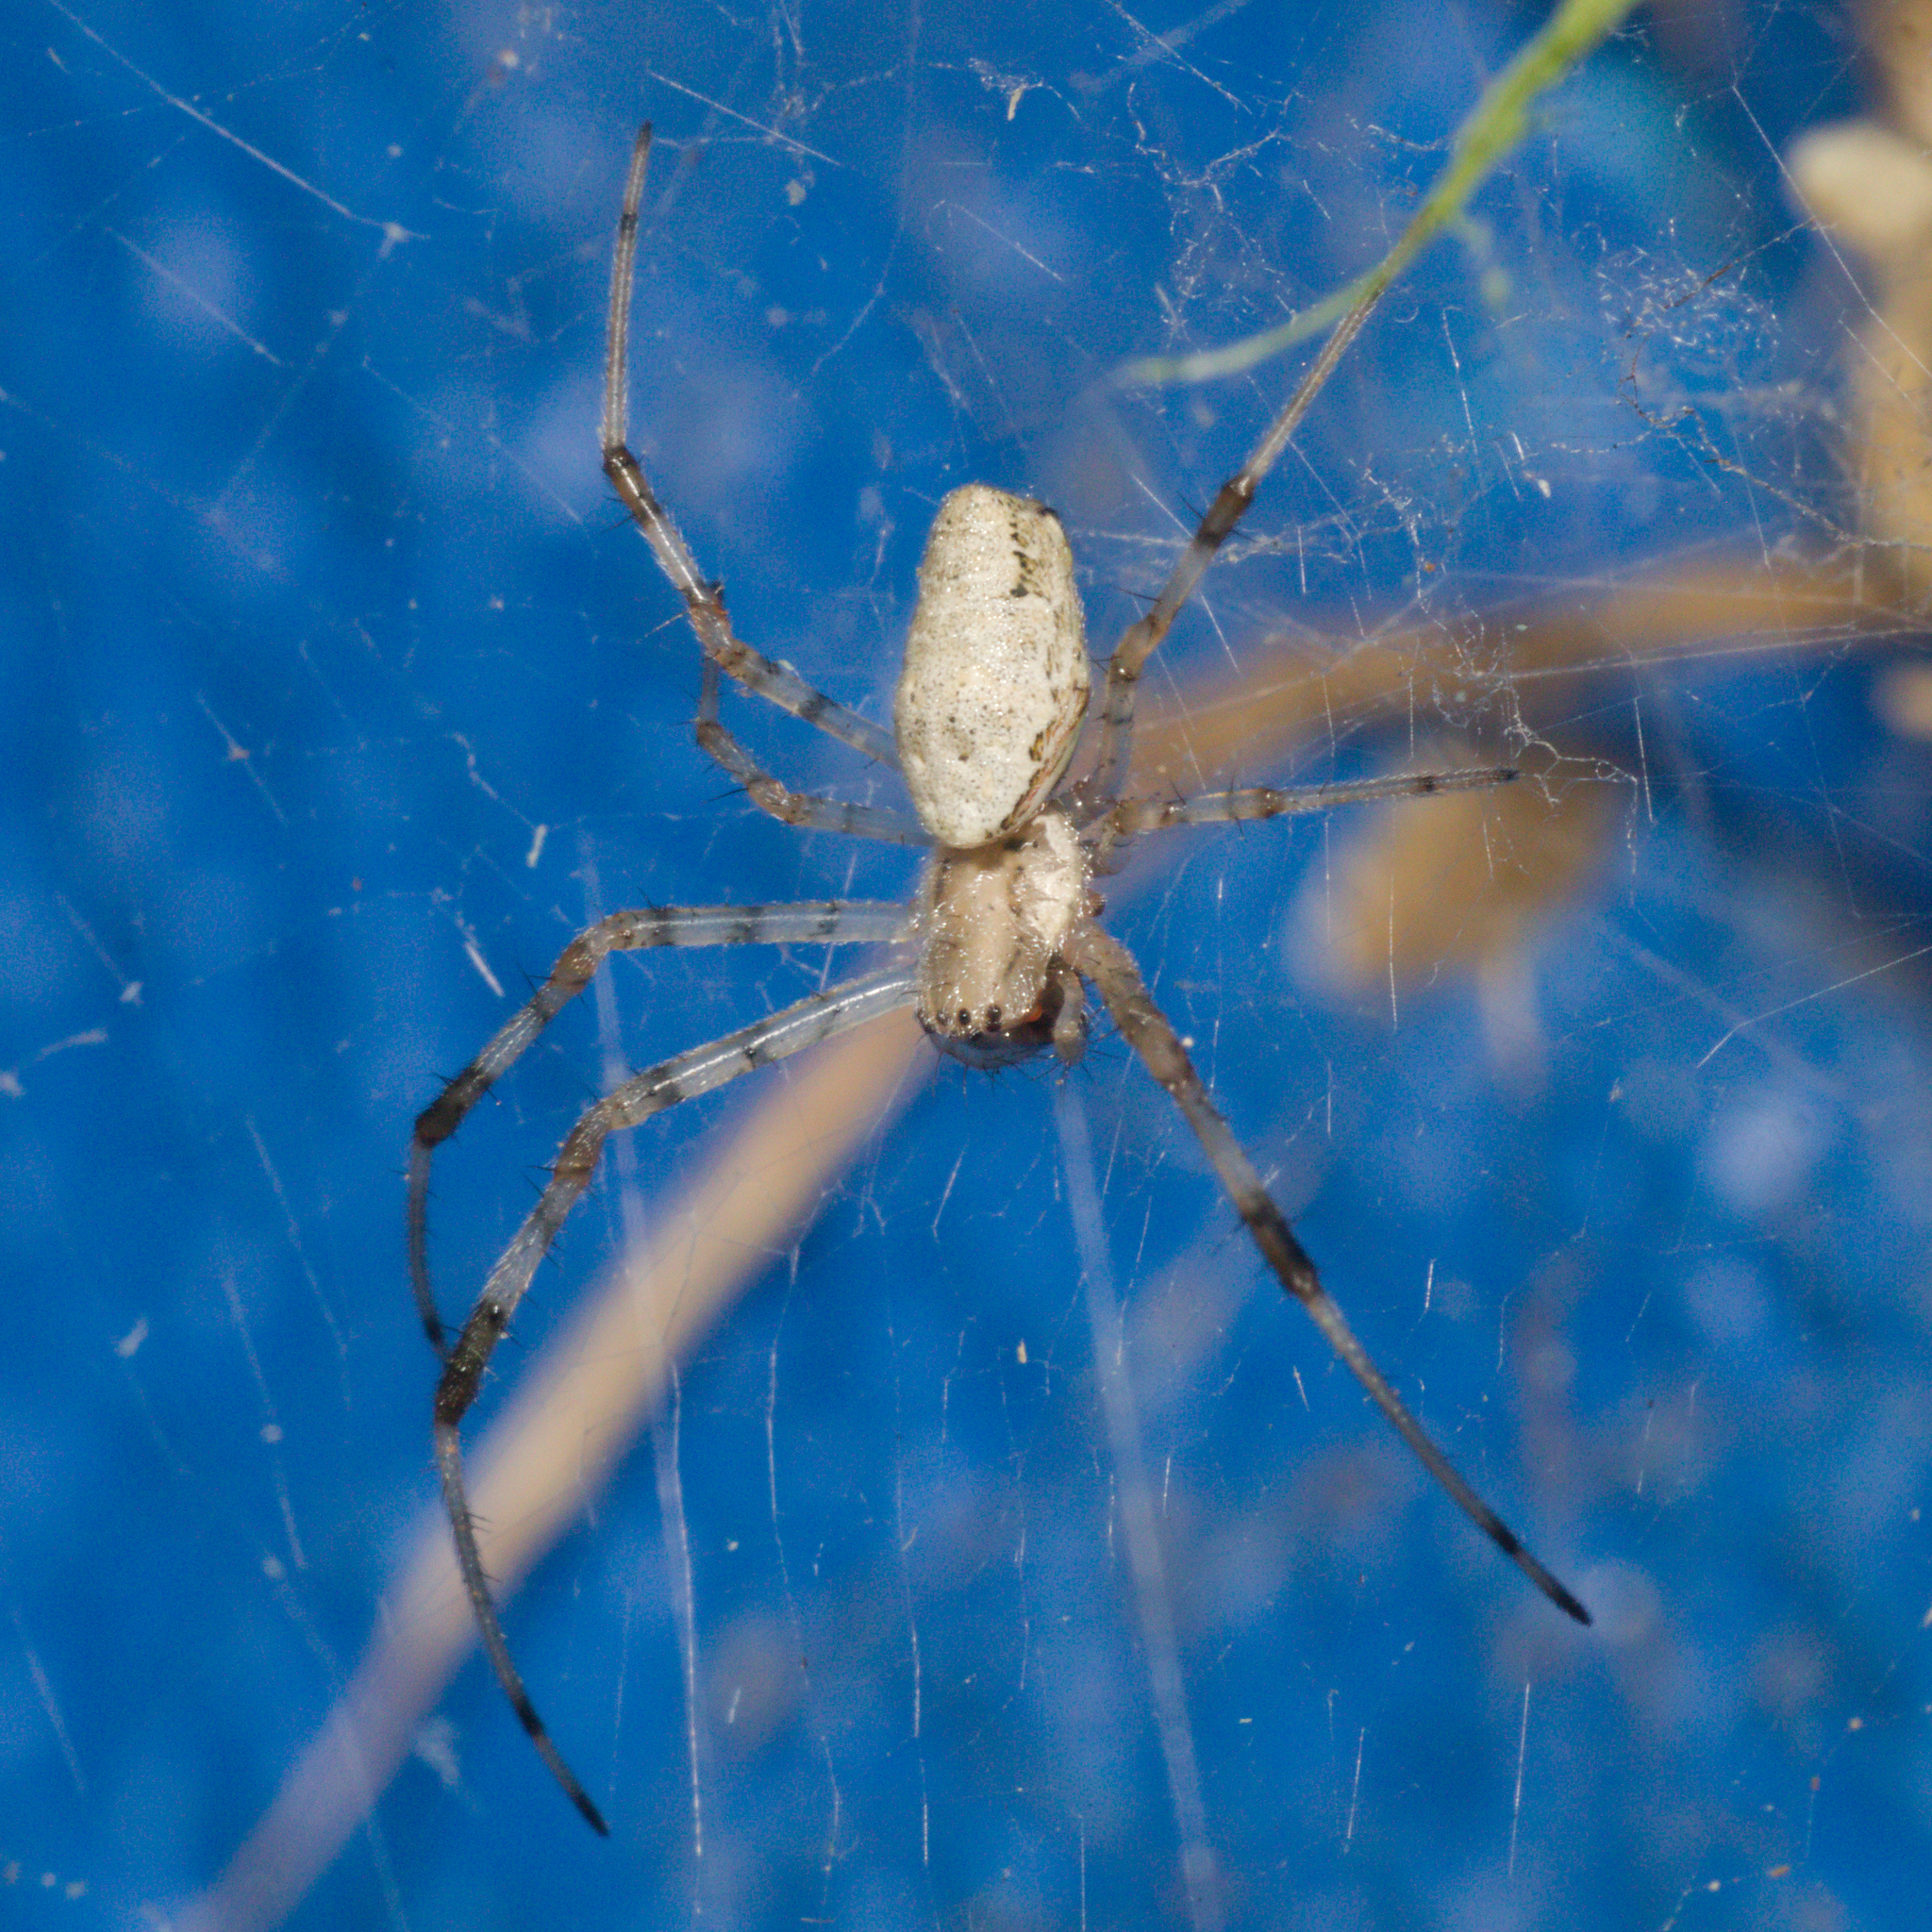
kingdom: Animalia
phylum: Arthropoda
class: Arachnida
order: Araneae
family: Araneidae
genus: Nephilingis
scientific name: Nephilingis cruentata
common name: African hermit spider
